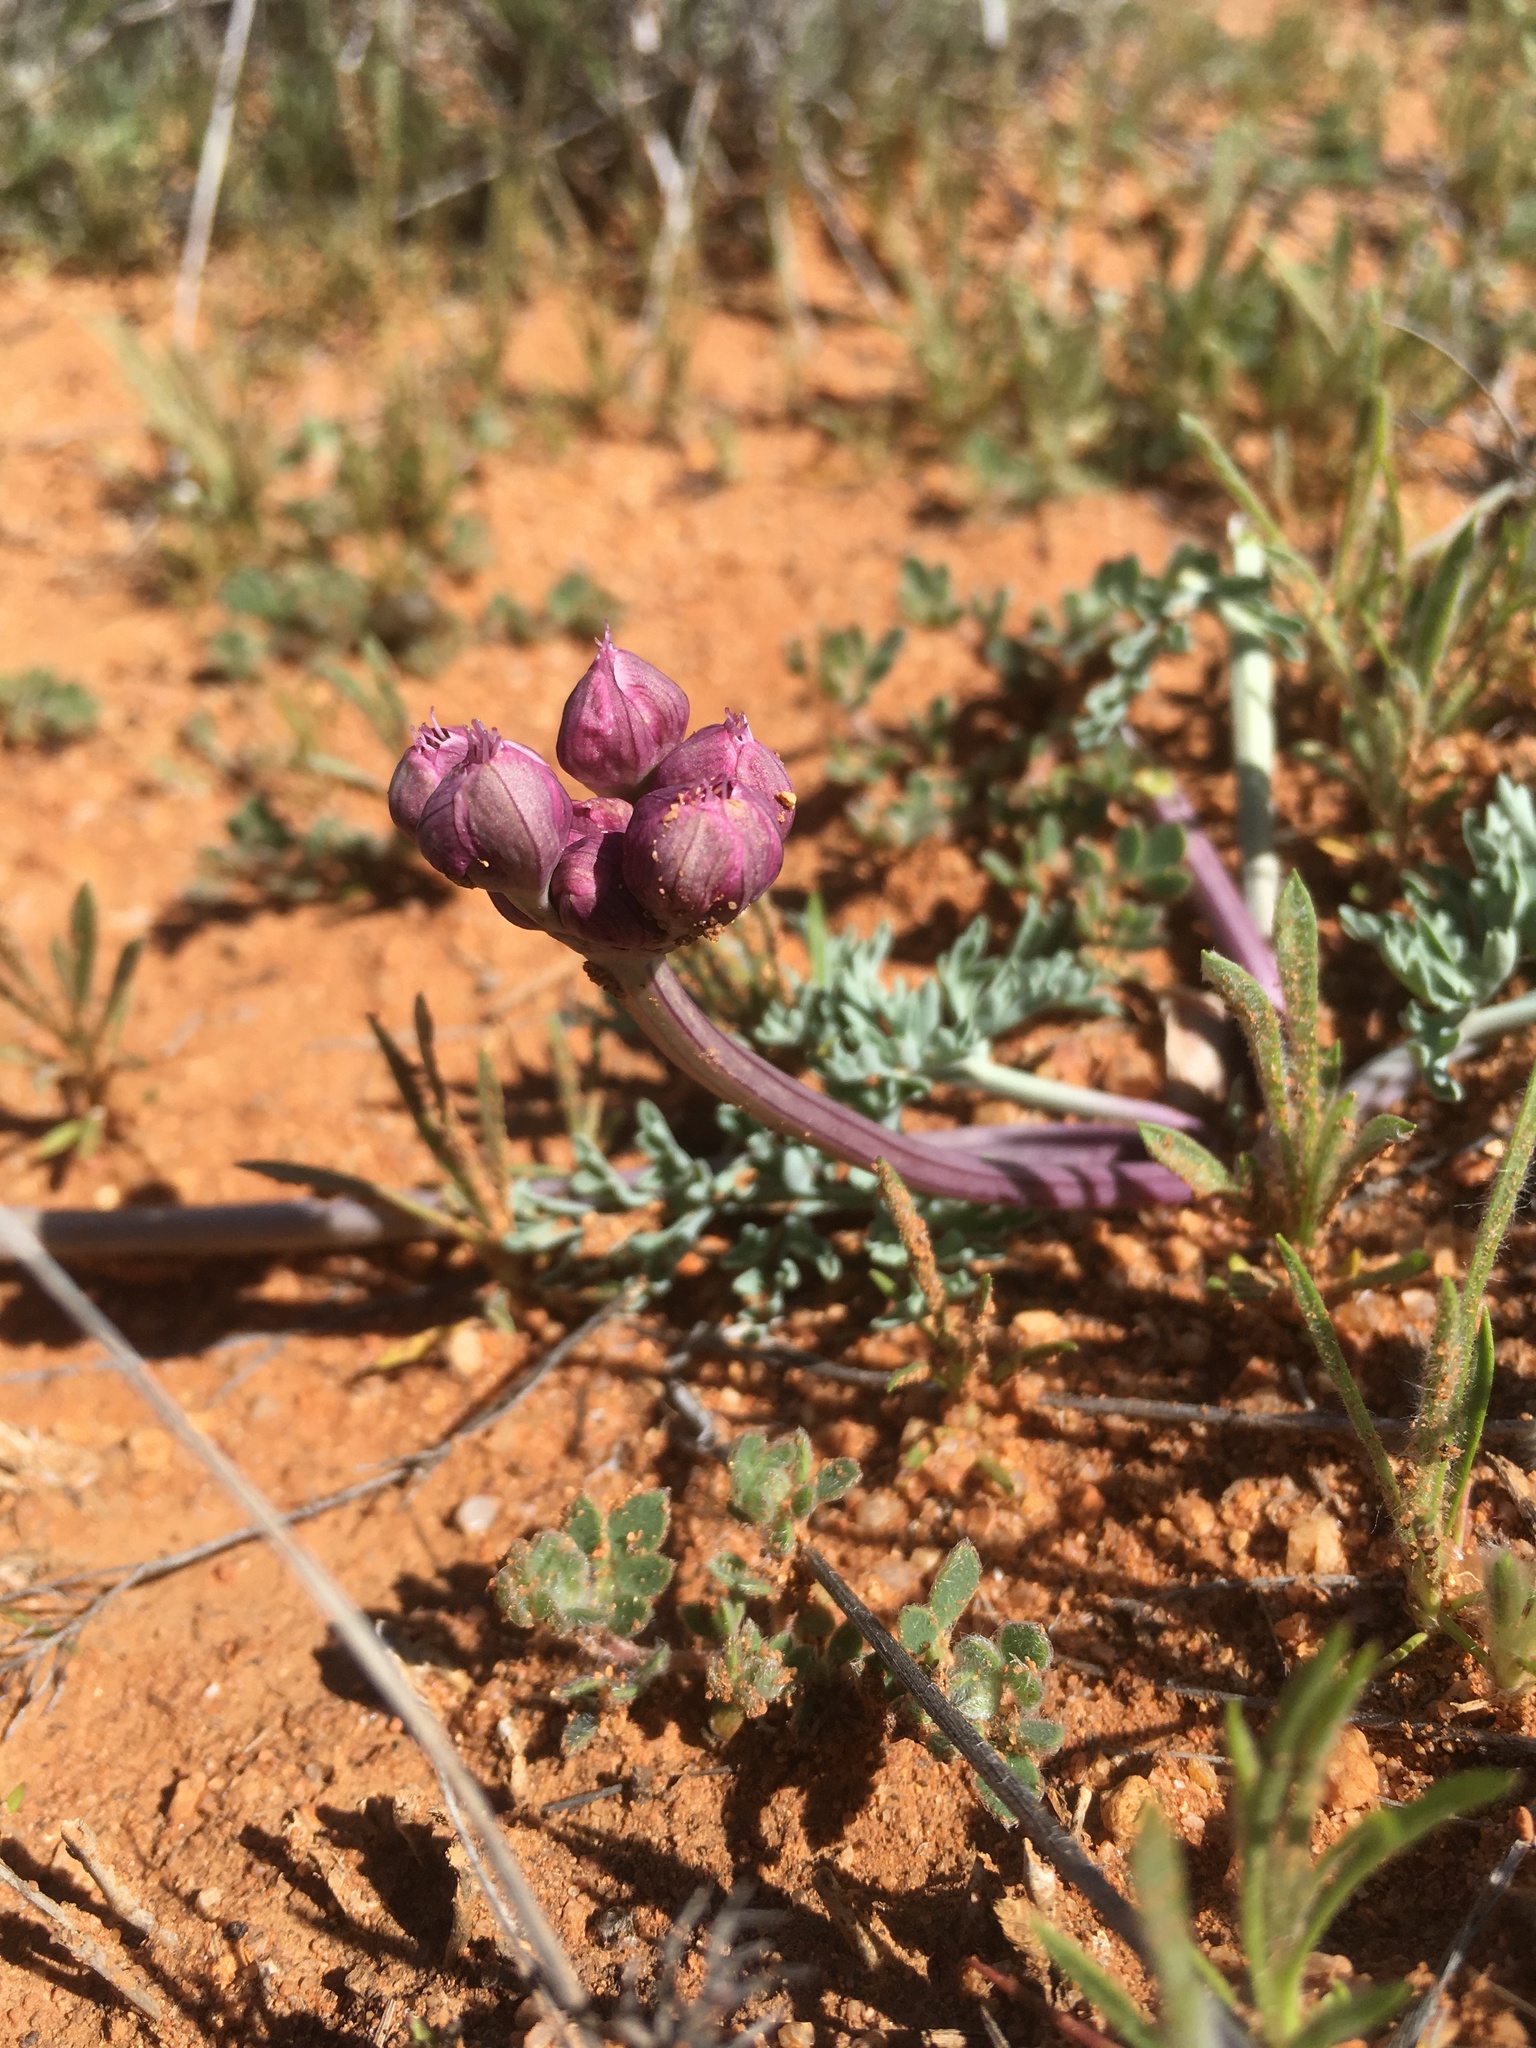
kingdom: Plantae
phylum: Tracheophyta
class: Magnoliopsida
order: Apiales
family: Apiaceae
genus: Vesper
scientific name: Vesper multinervatus
